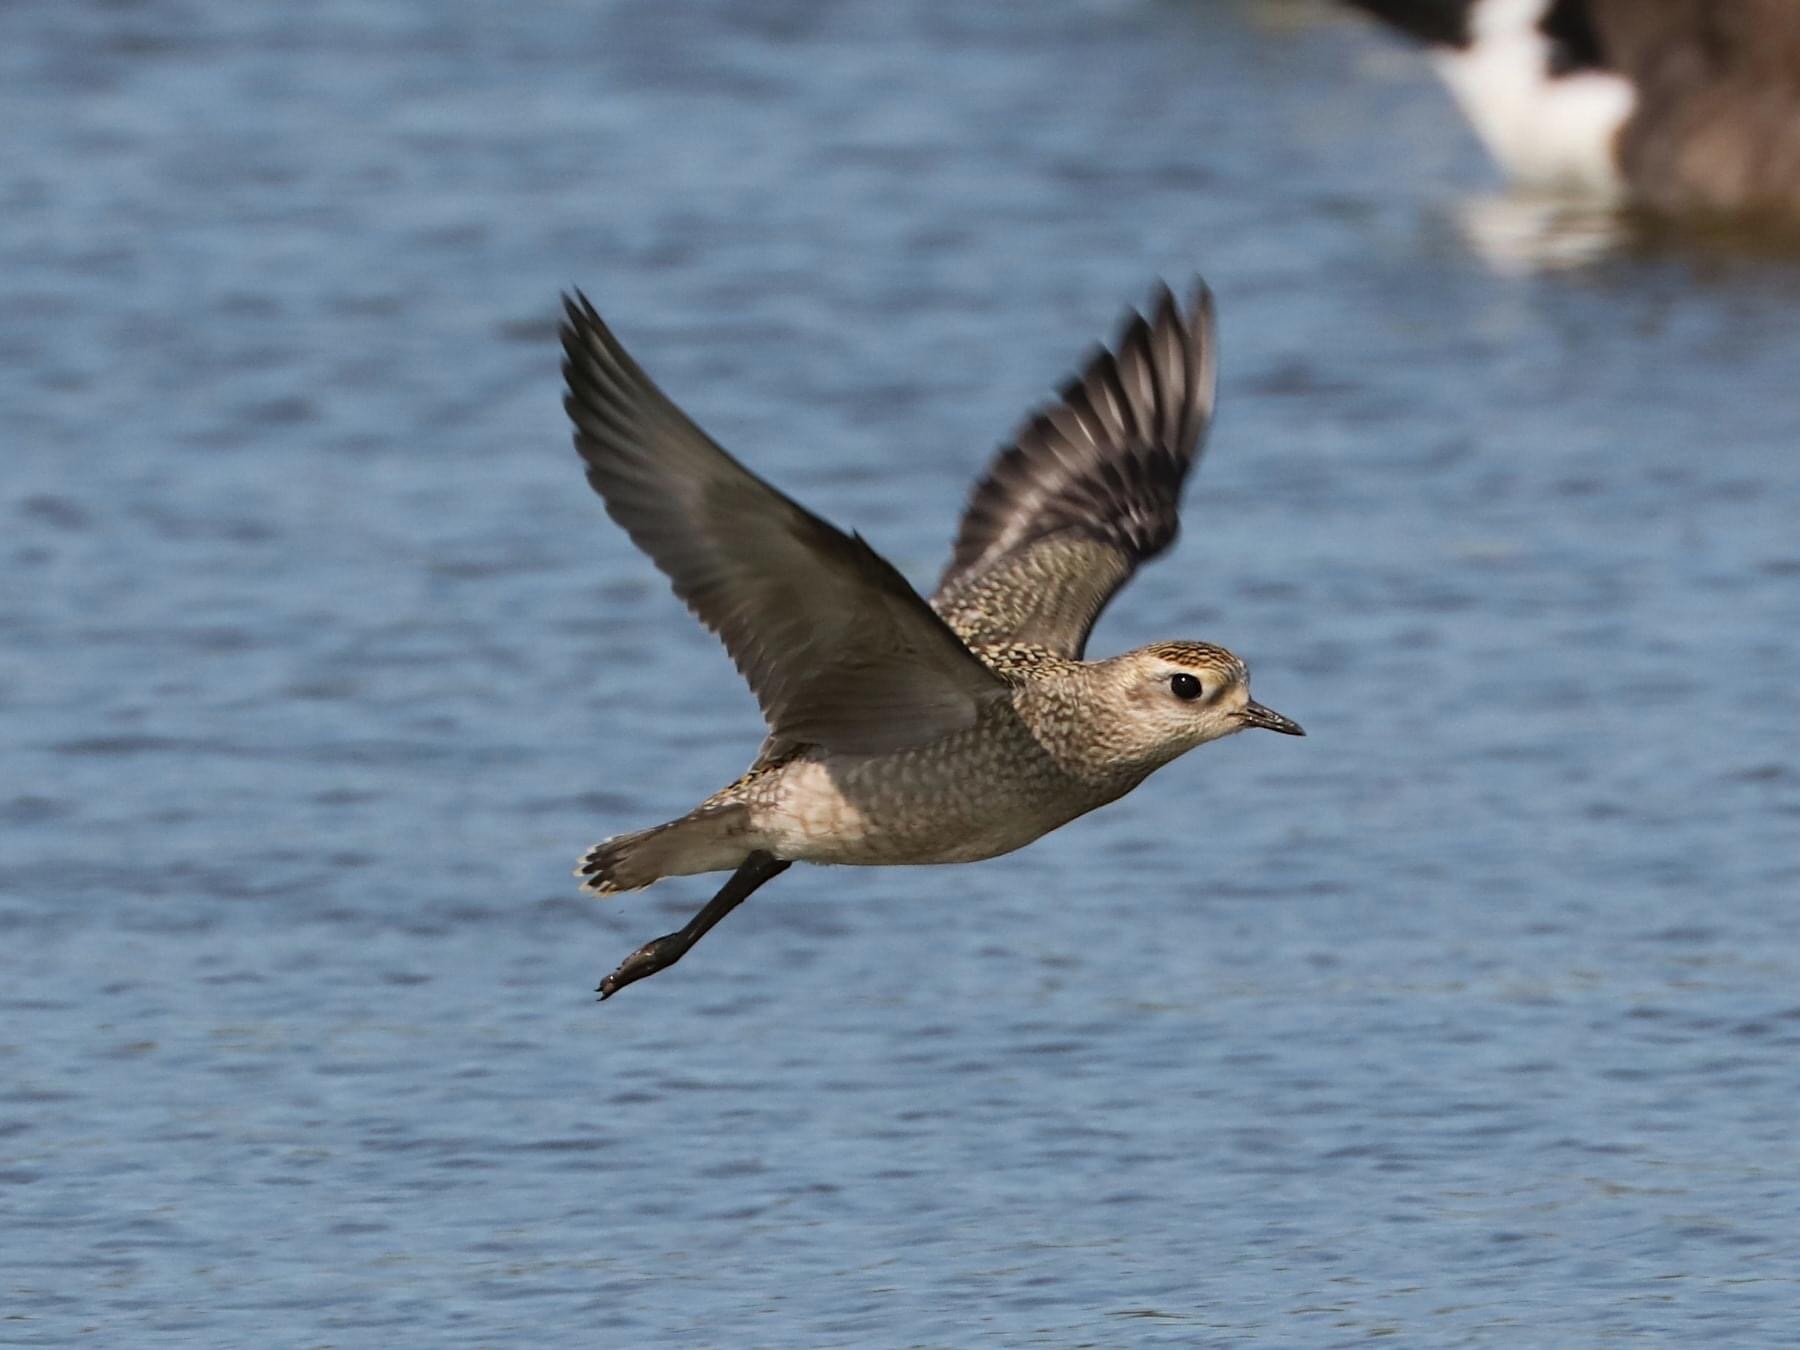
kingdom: Animalia
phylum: Chordata
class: Aves
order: Charadriiformes
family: Charadriidae
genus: Pluvialis
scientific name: Pluvialis dominica
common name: American golden plover
